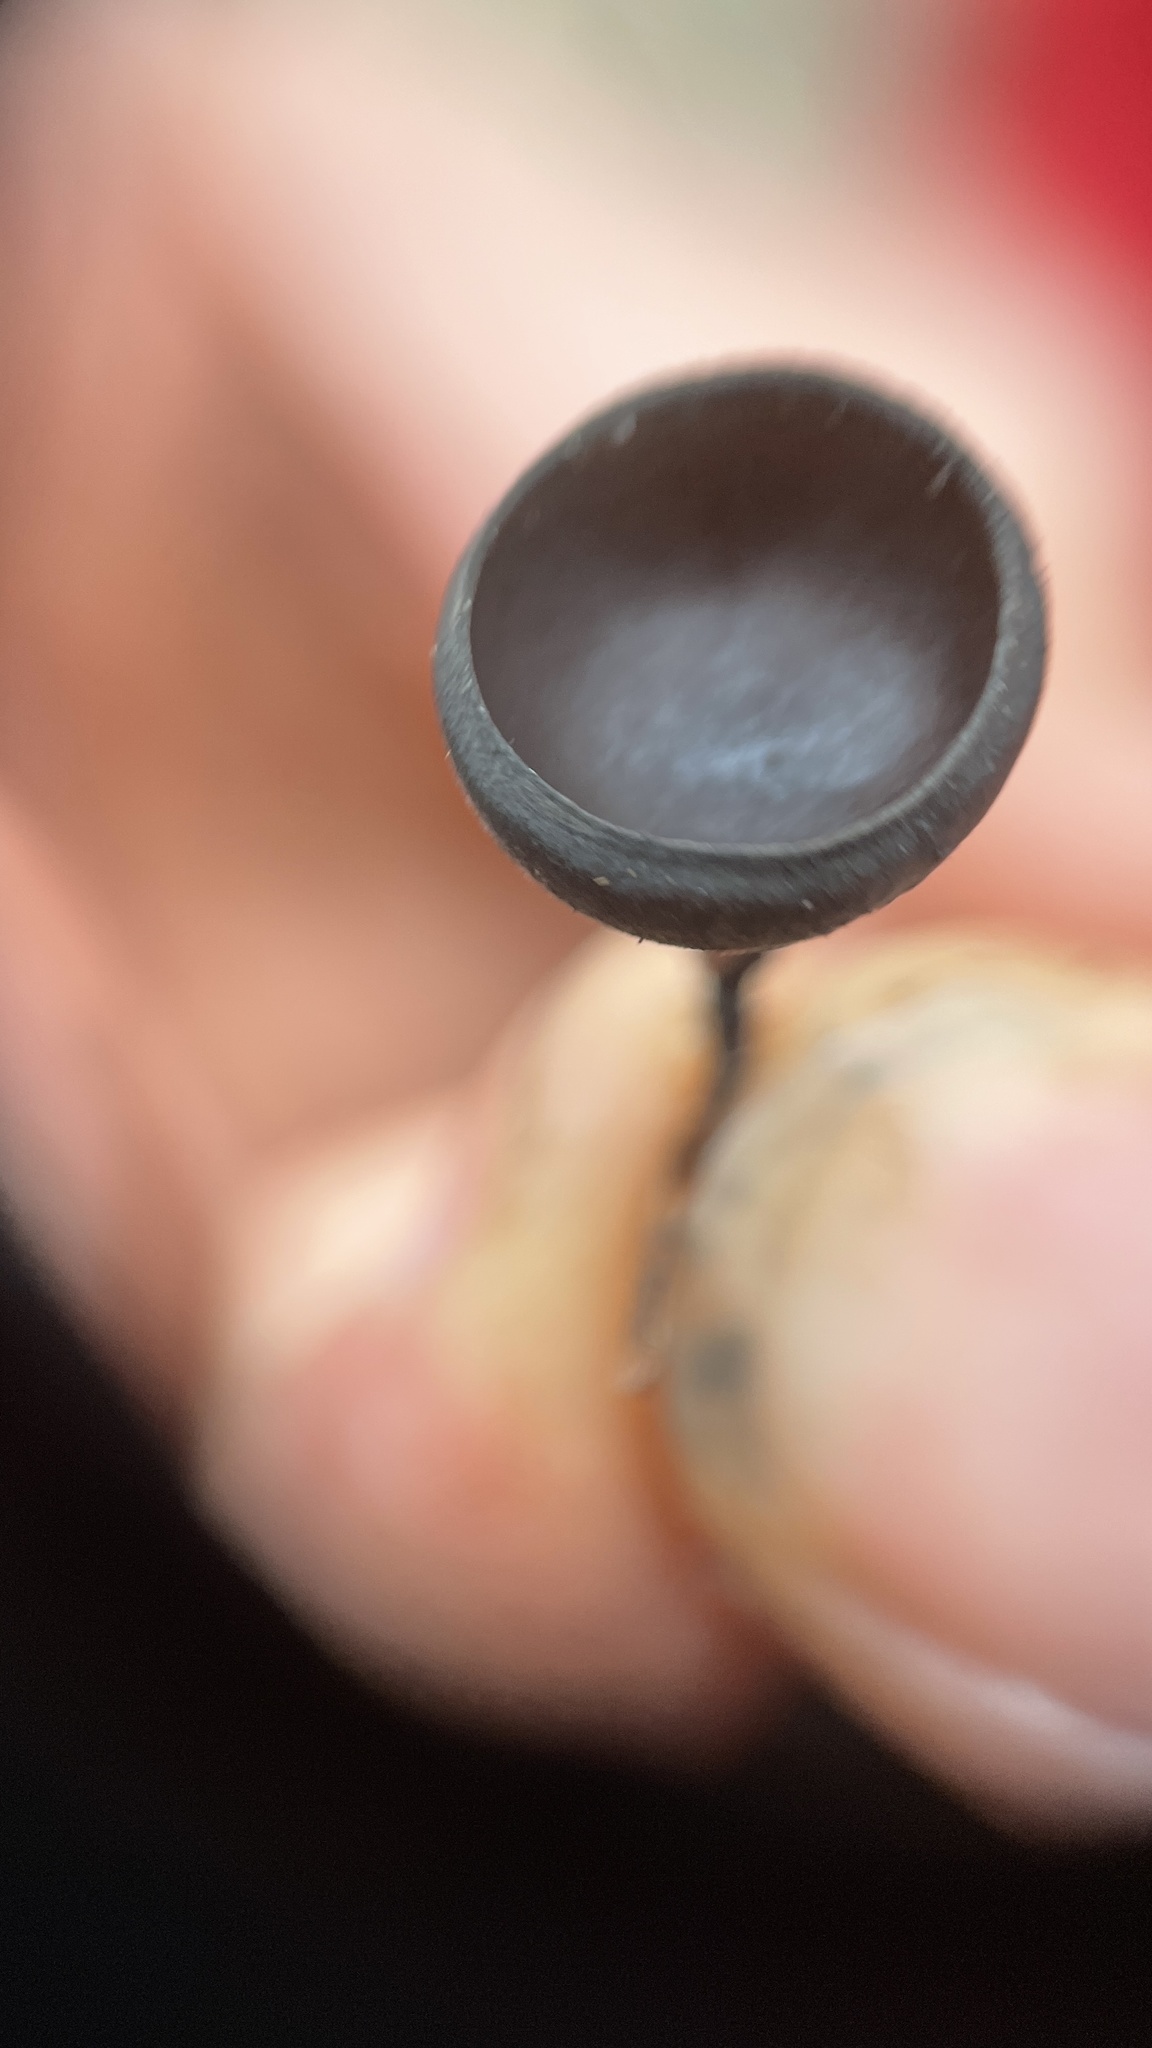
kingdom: Fungi
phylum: Ascomycota
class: Pezizomycetes
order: Pezizales
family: Sarcosomataceae
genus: Donadinia
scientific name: Donadinia nigrella
